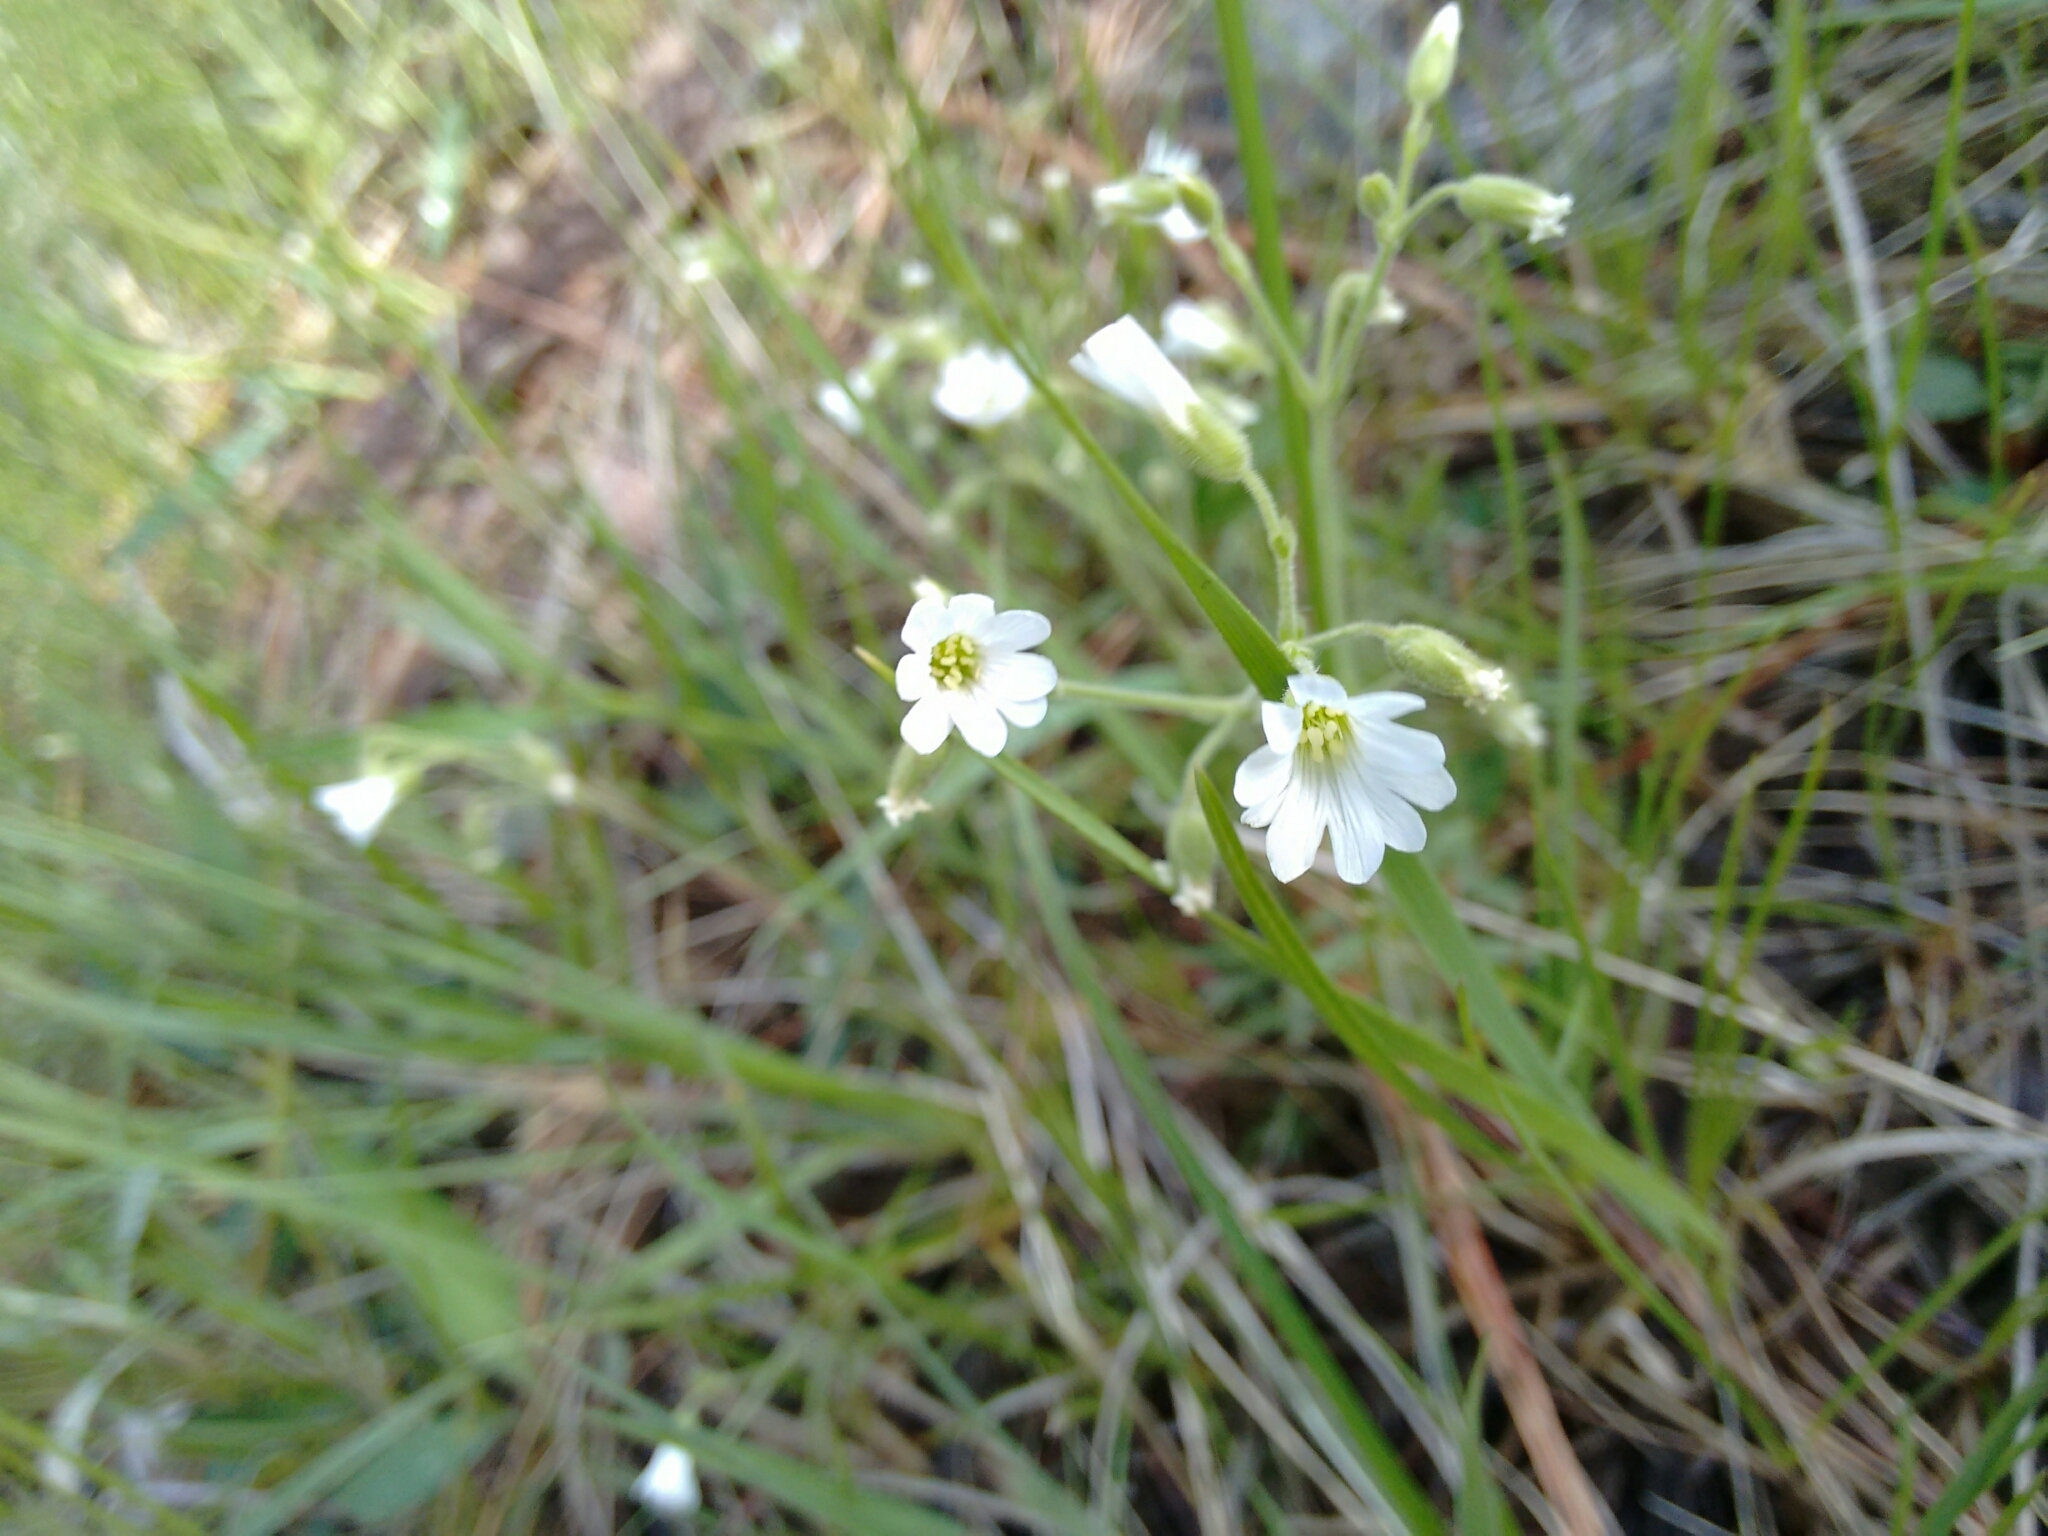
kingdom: Plantae
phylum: Tracheophyta
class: Magnoliopsida
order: Caryophyllales
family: Caryophyllaceae
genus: Cerastium
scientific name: Cerastium arvense
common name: Field mouse-ear
